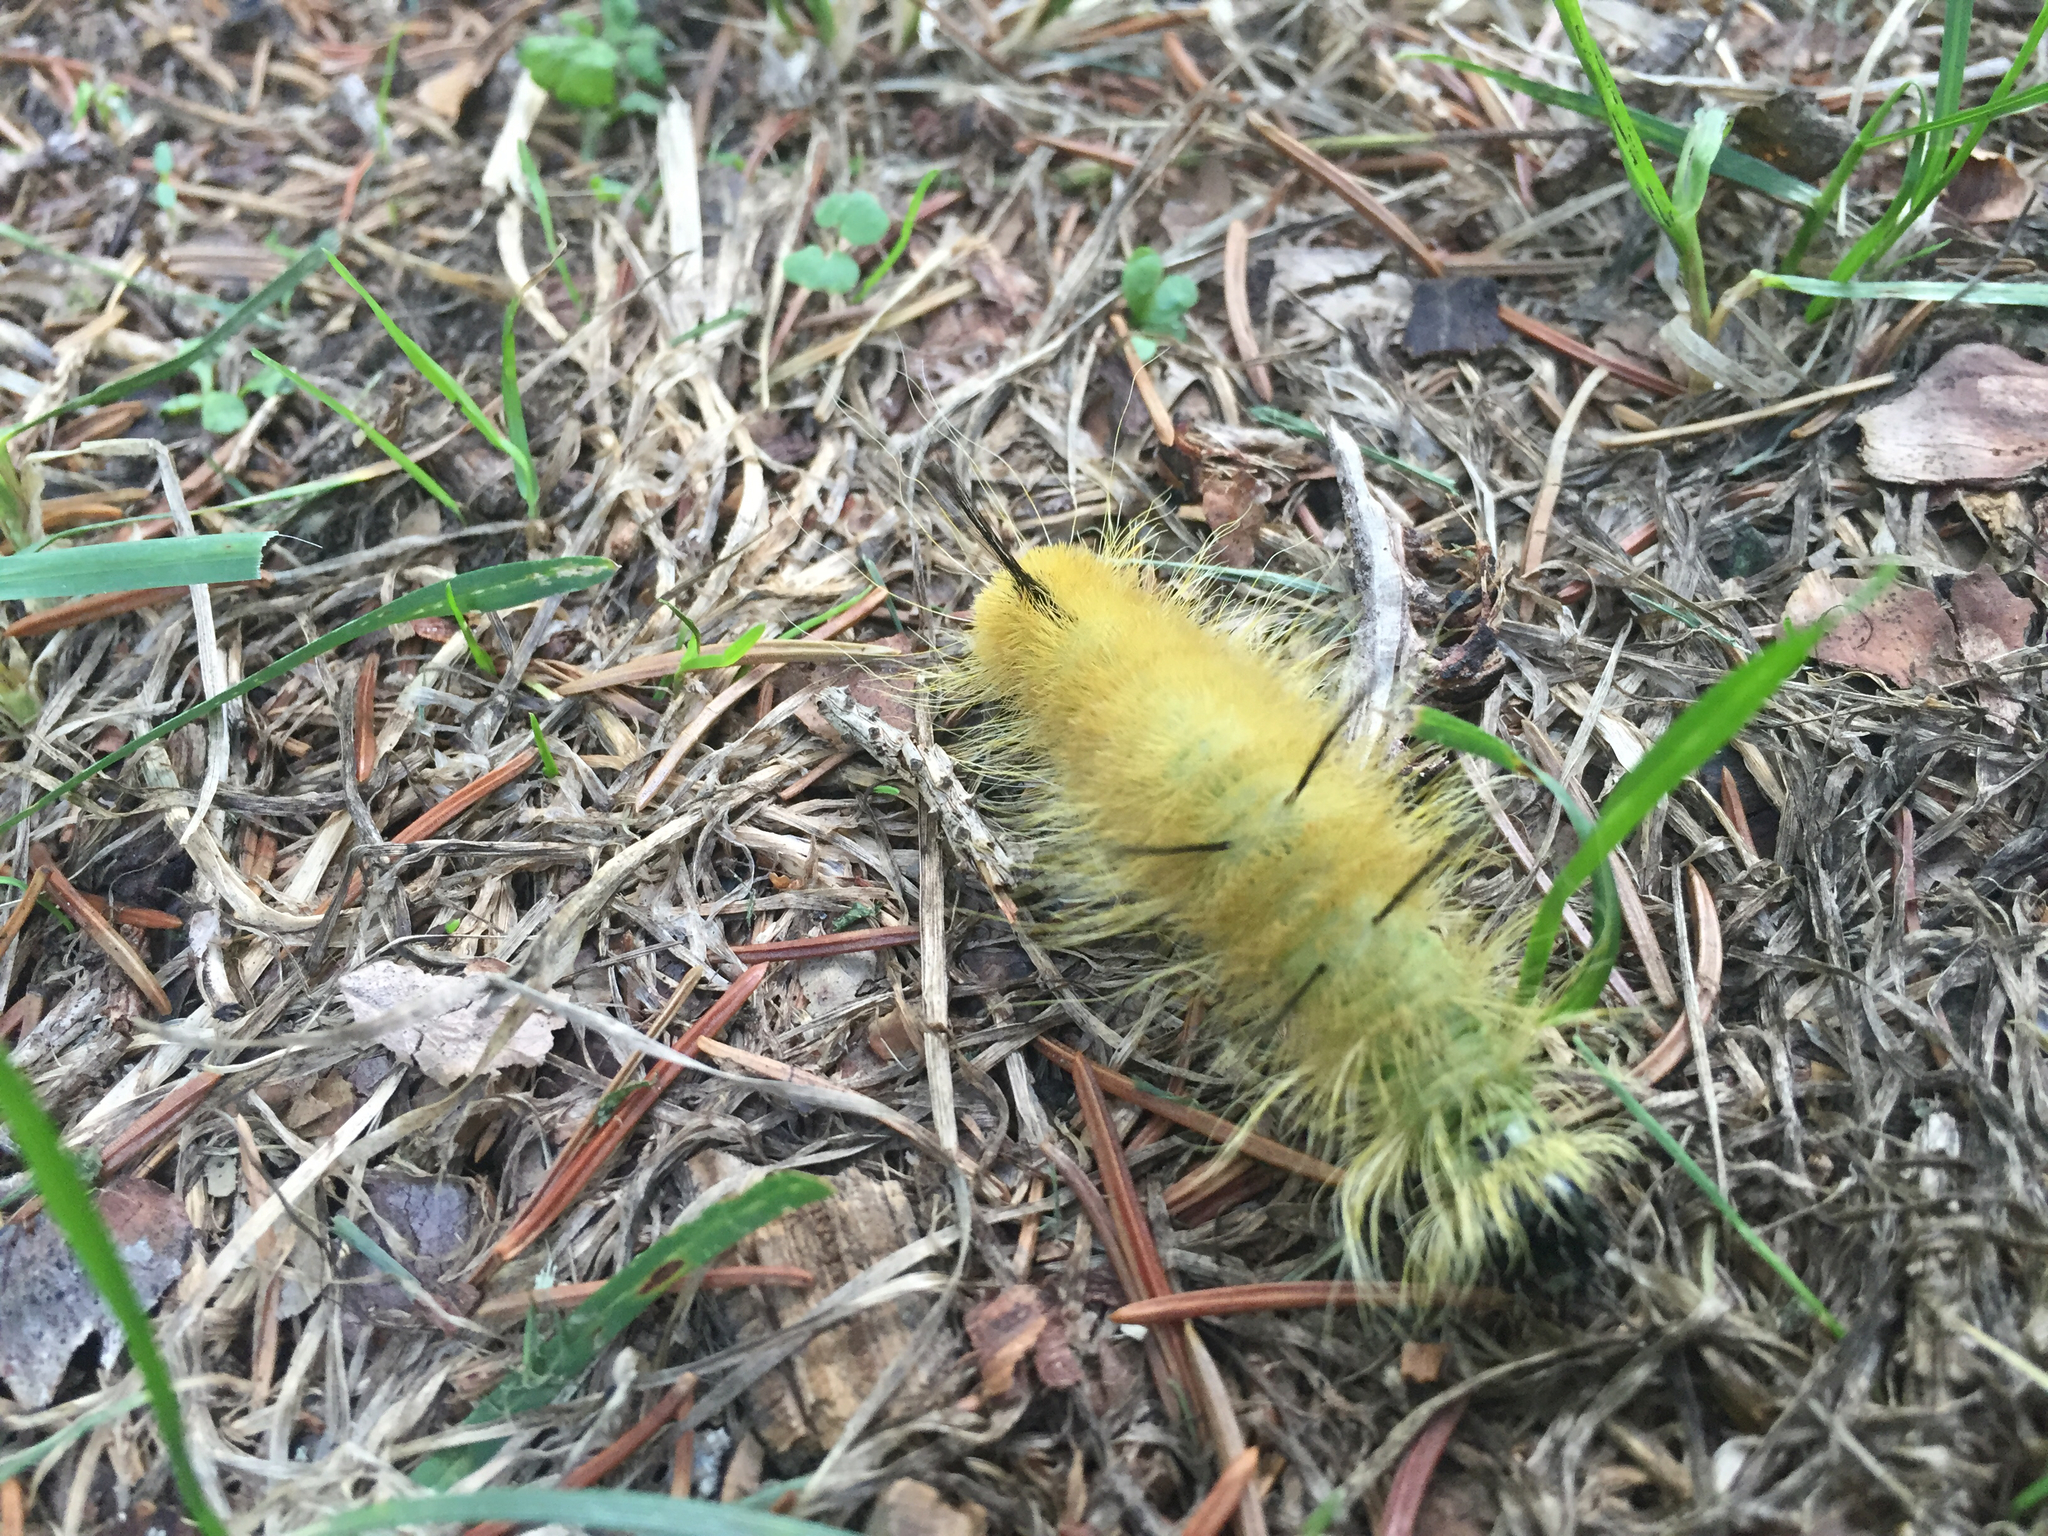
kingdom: Animalia
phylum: Arthropoda
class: Insecta
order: Lepidoptera
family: Noctuidae
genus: Acronicta
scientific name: Acronicta americana
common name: American dagger
